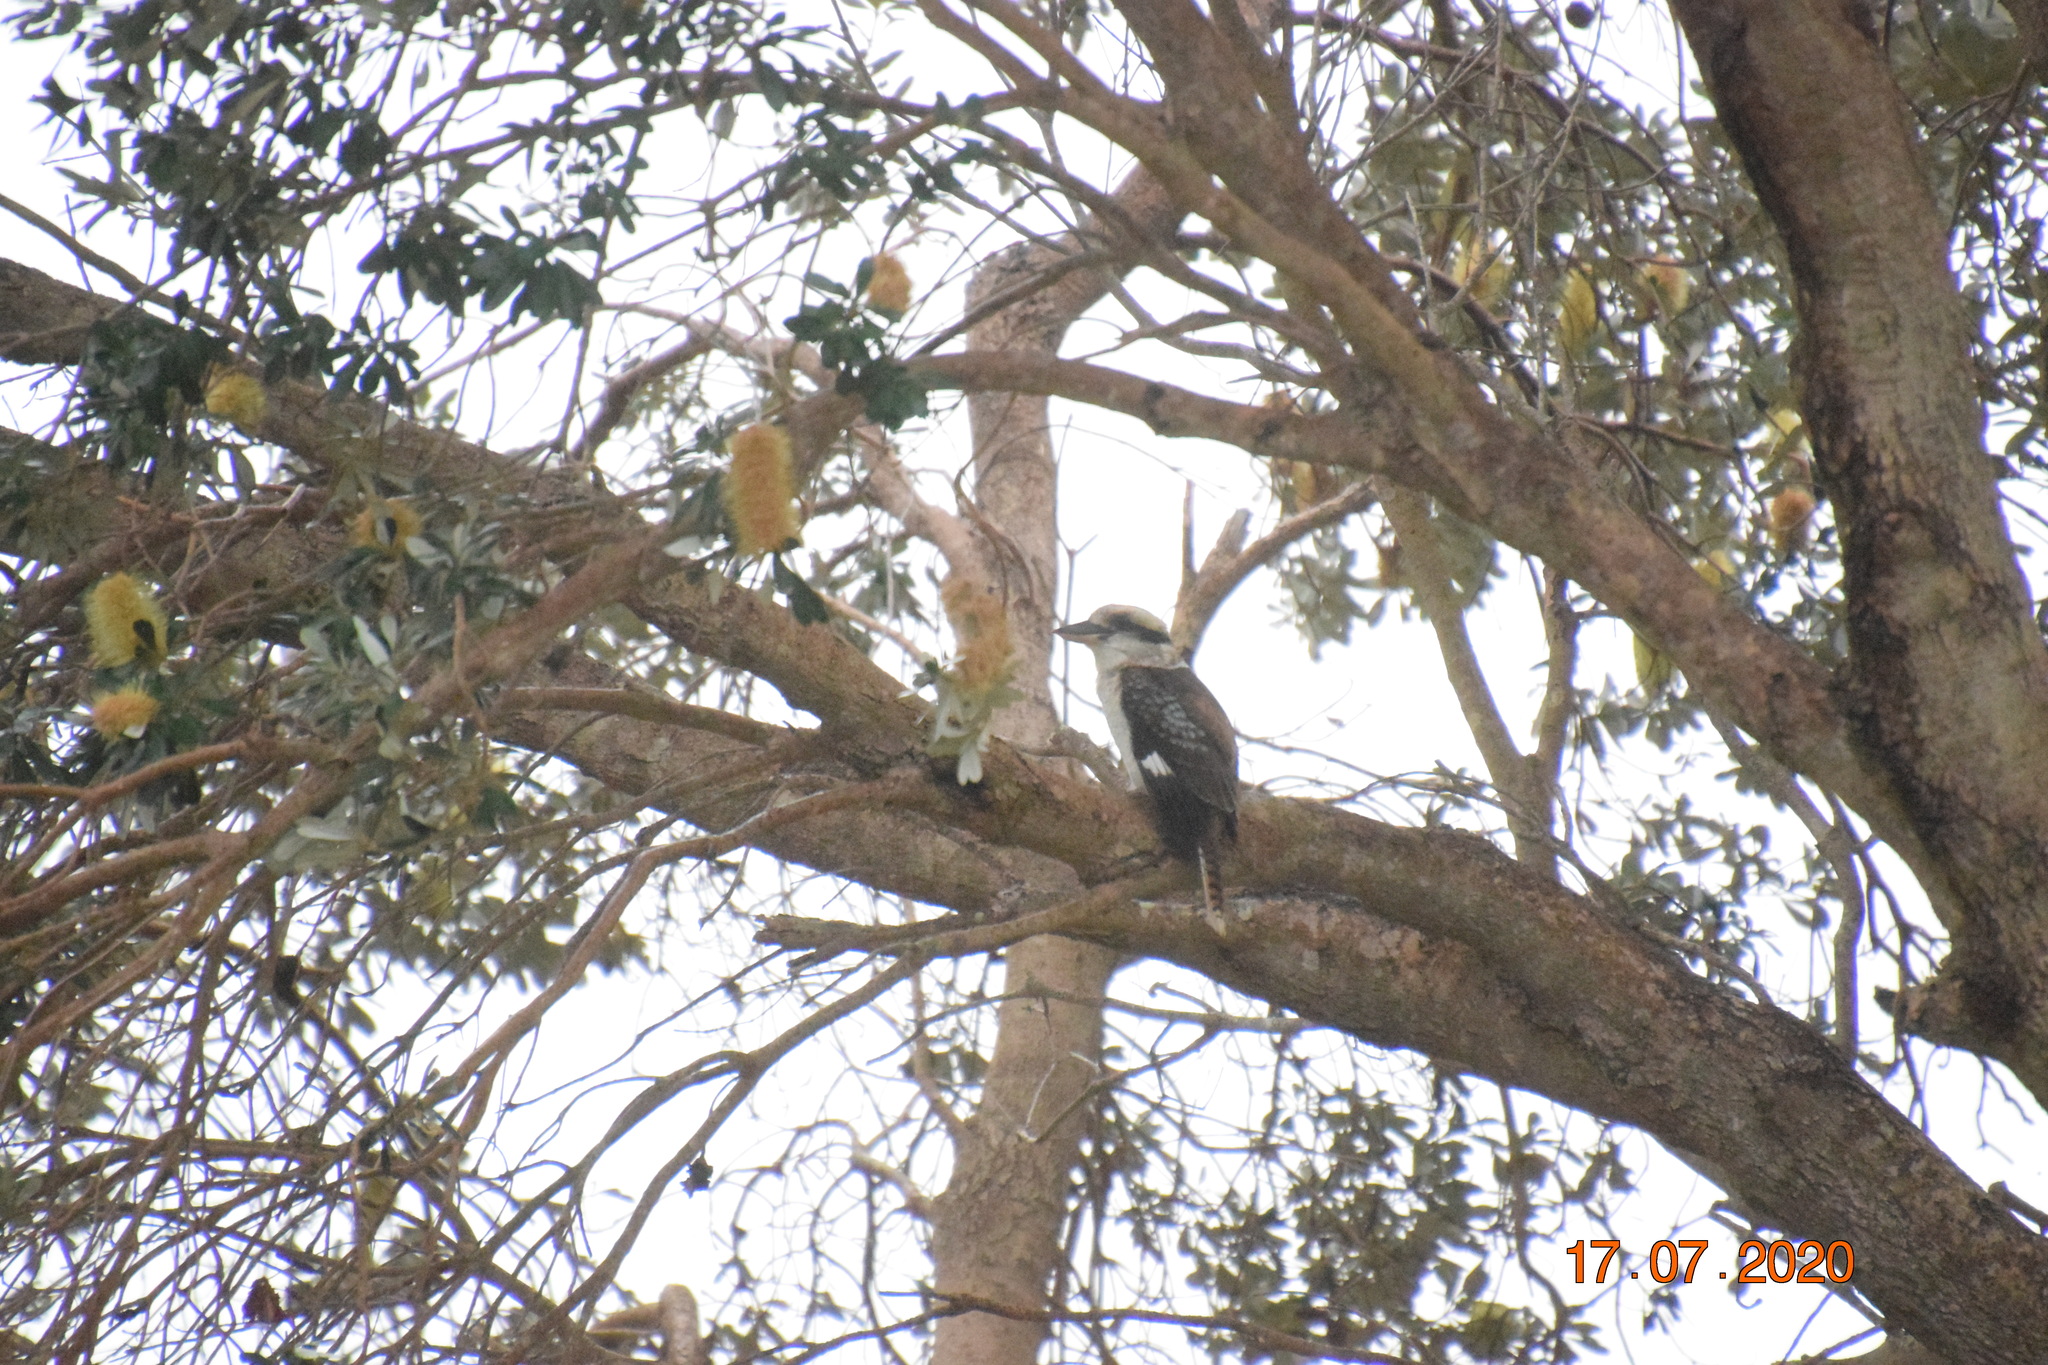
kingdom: Animalia
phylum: Chordata
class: Aves
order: Coraciiformes
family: Alcedinidae
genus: Dacelo
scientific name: Dacelo novaeguineae
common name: Laughing kookaburra
